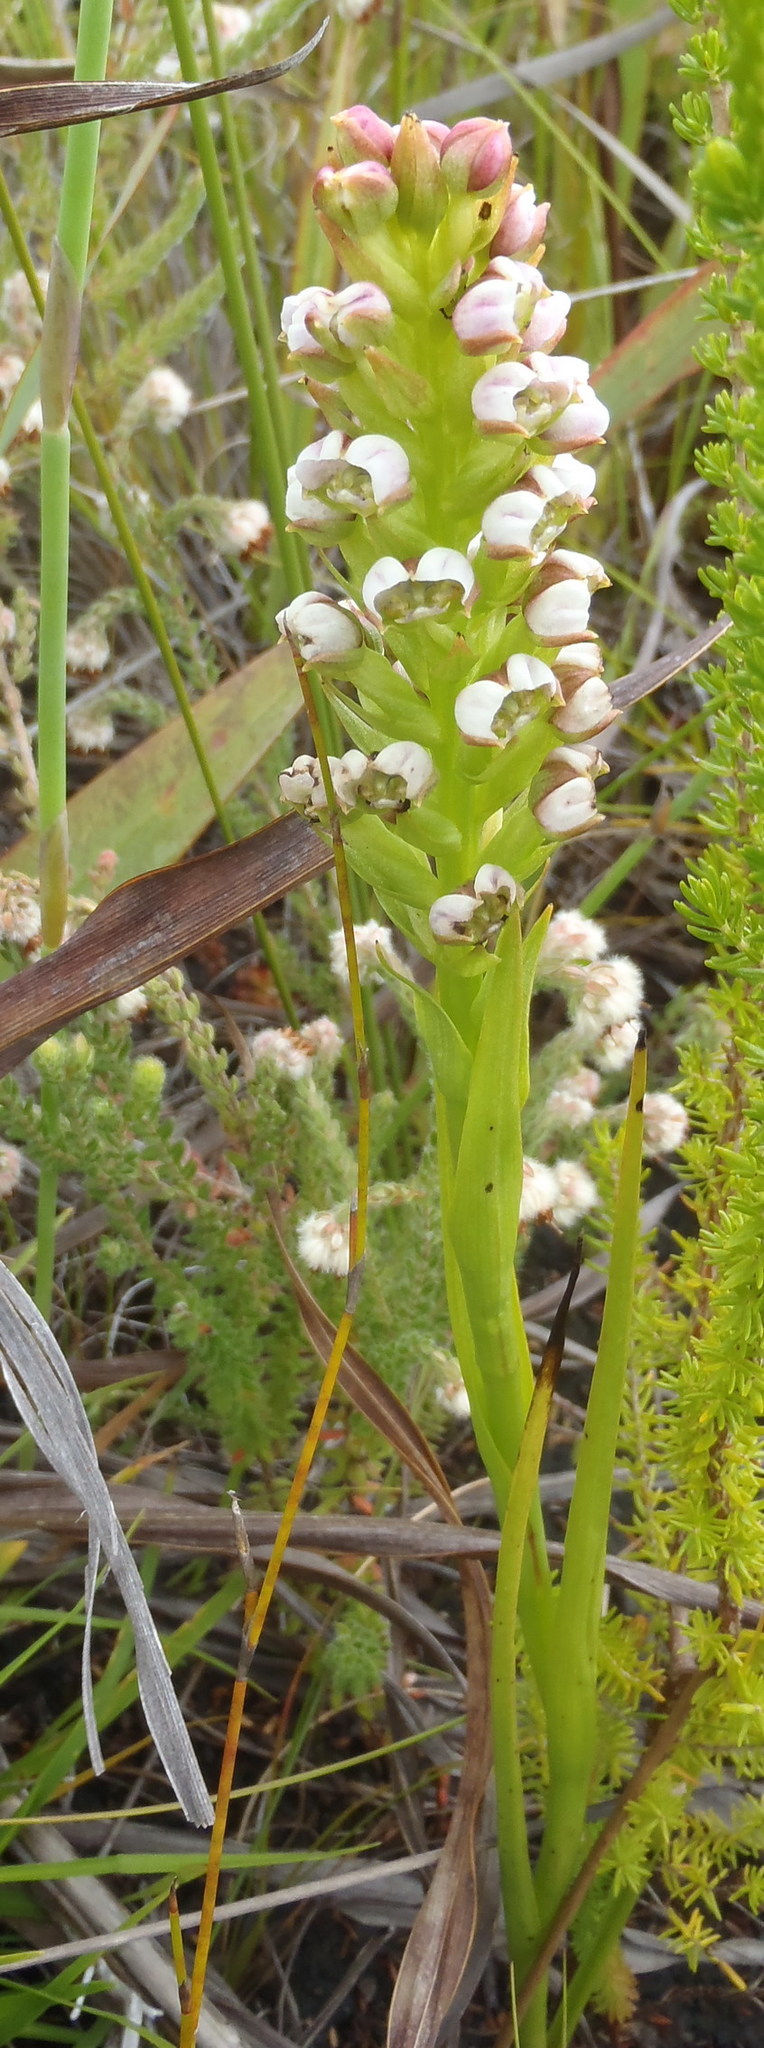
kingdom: Plantae
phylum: Tracheophyta
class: Liliopsida
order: Asparagales
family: Orchidaceae
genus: Evotella
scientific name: Evotella carnosa
